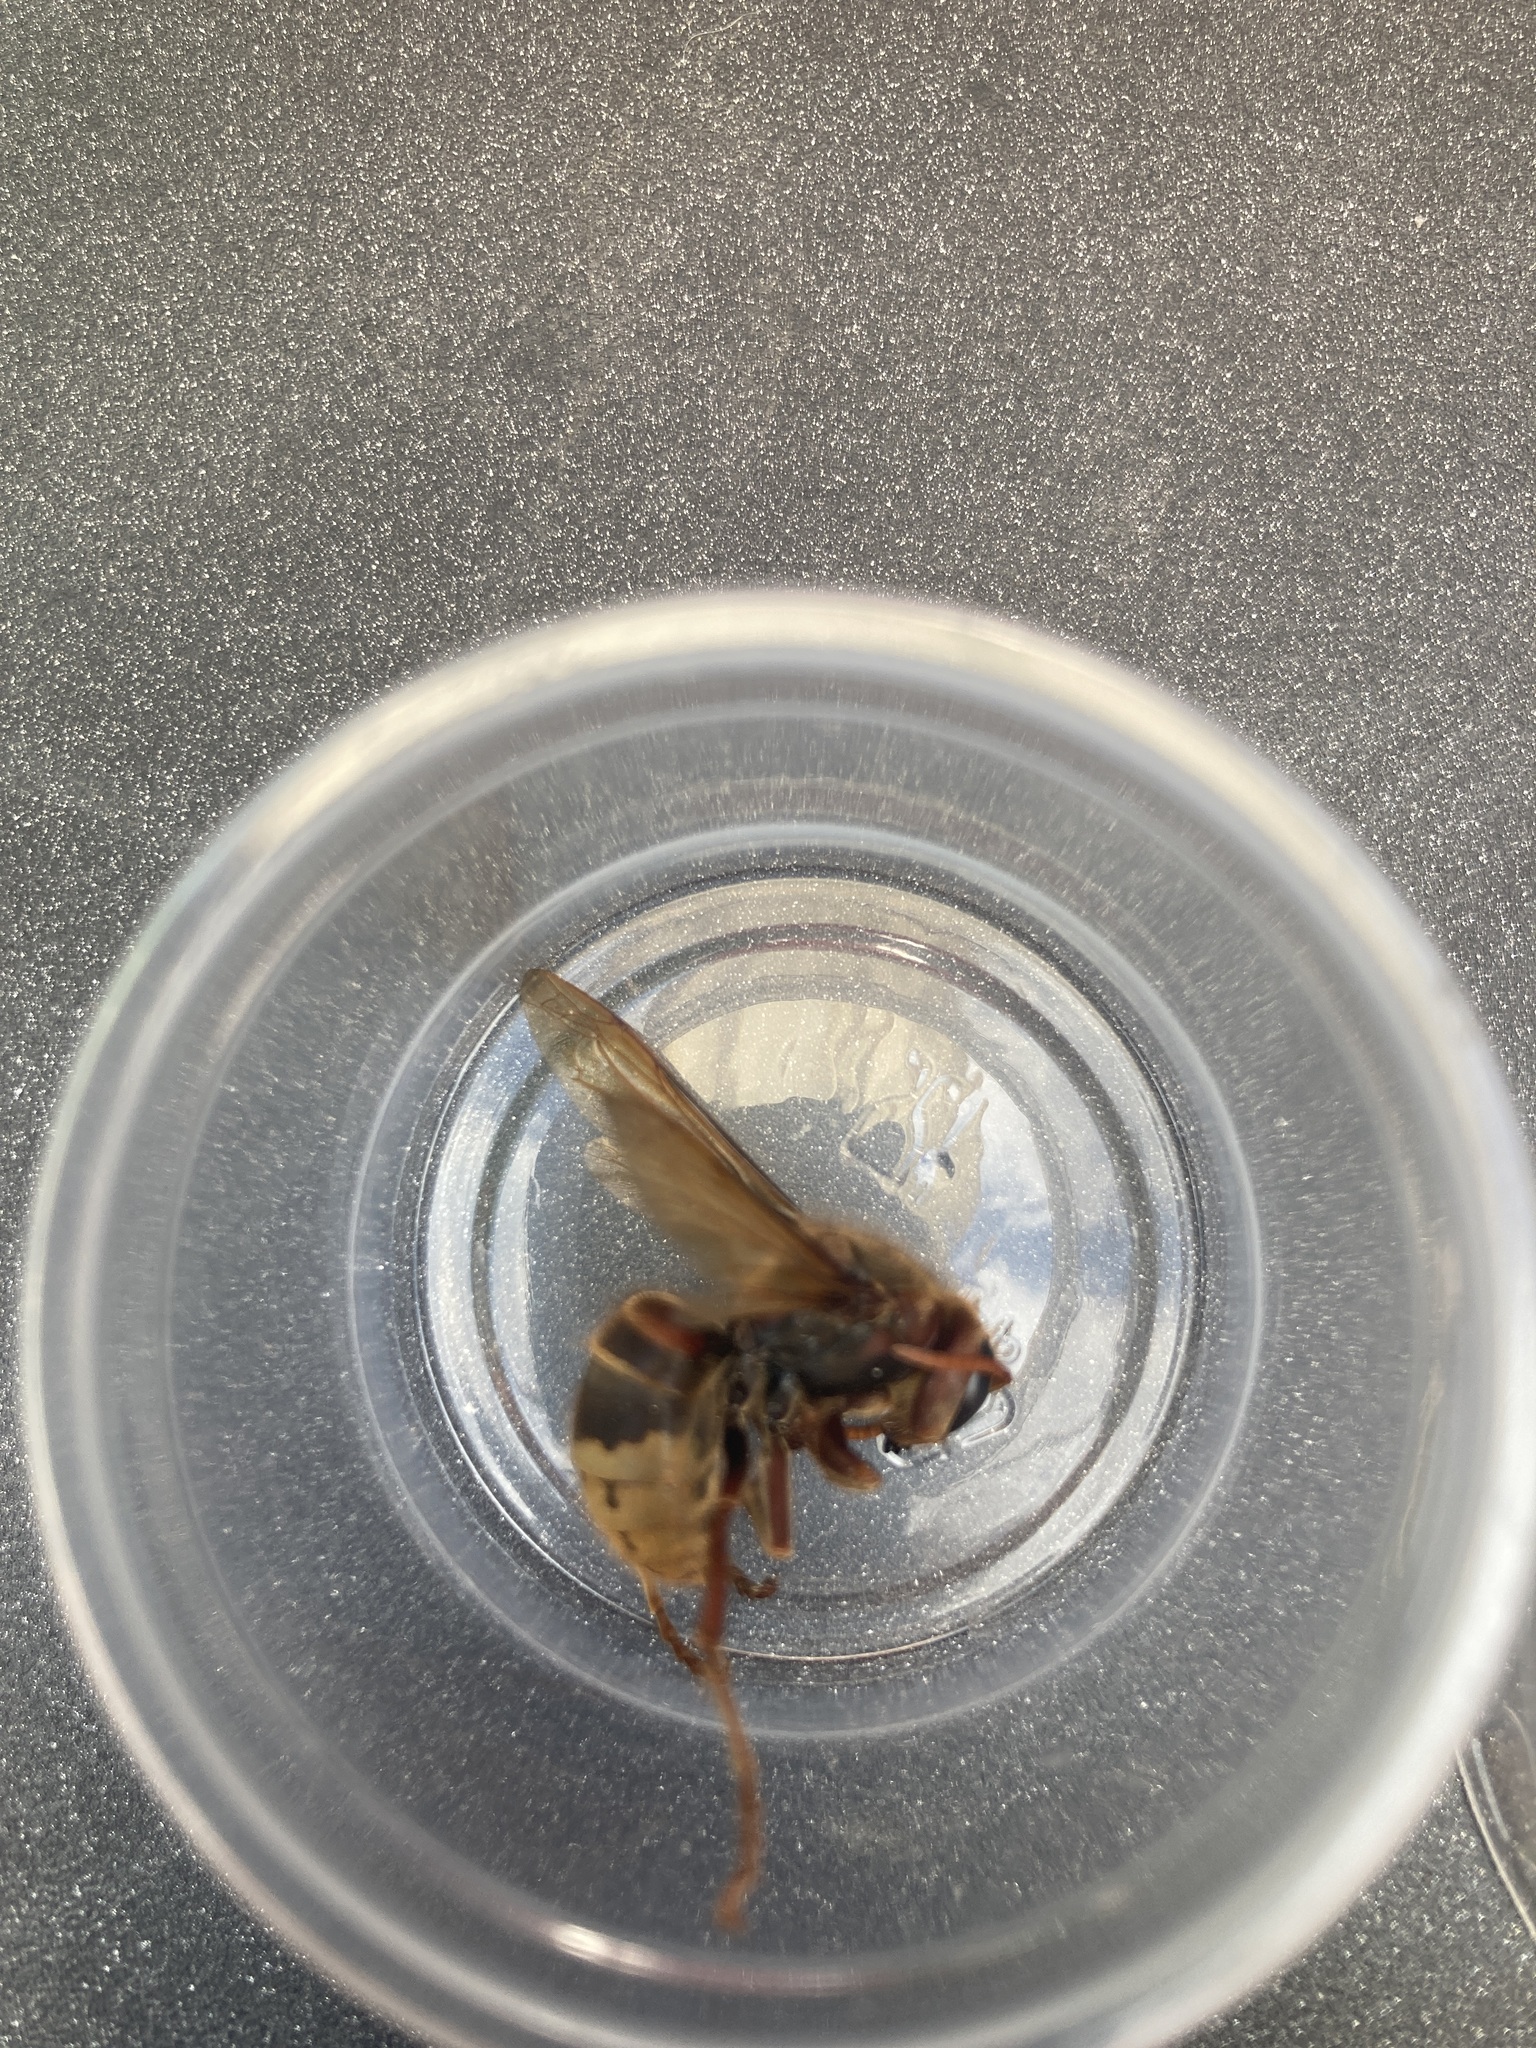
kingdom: Animalia
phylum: Arthropoda
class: Insecta
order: Hymenoptera
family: Vespidae
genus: Vespa
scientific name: Vespa crabro
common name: Hornet
